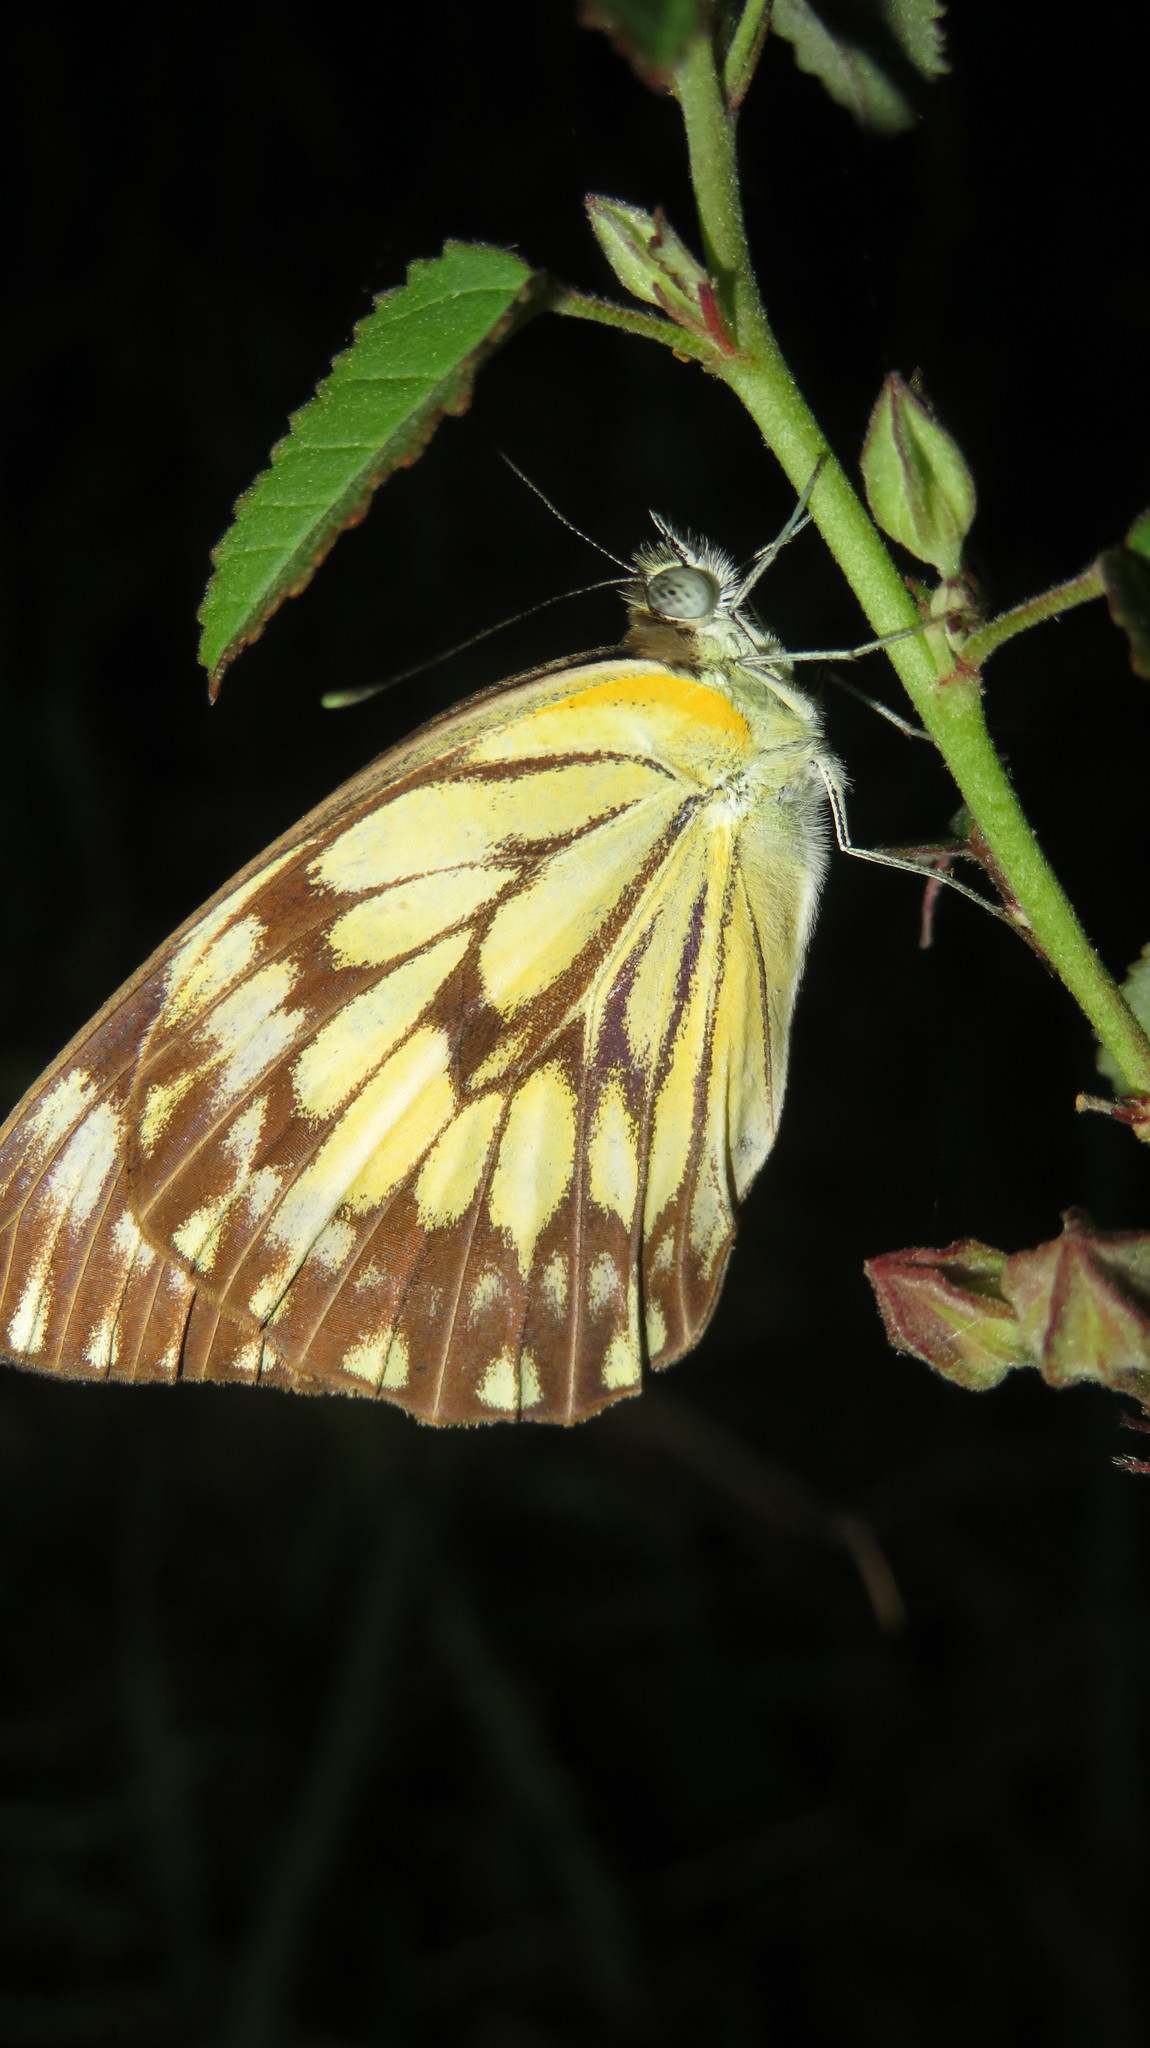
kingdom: Animalia
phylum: Arthropoda
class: Insecta
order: Lepidoptera
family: Pieridae
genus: Belenois
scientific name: Belenois gidica
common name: Pointed caper white
